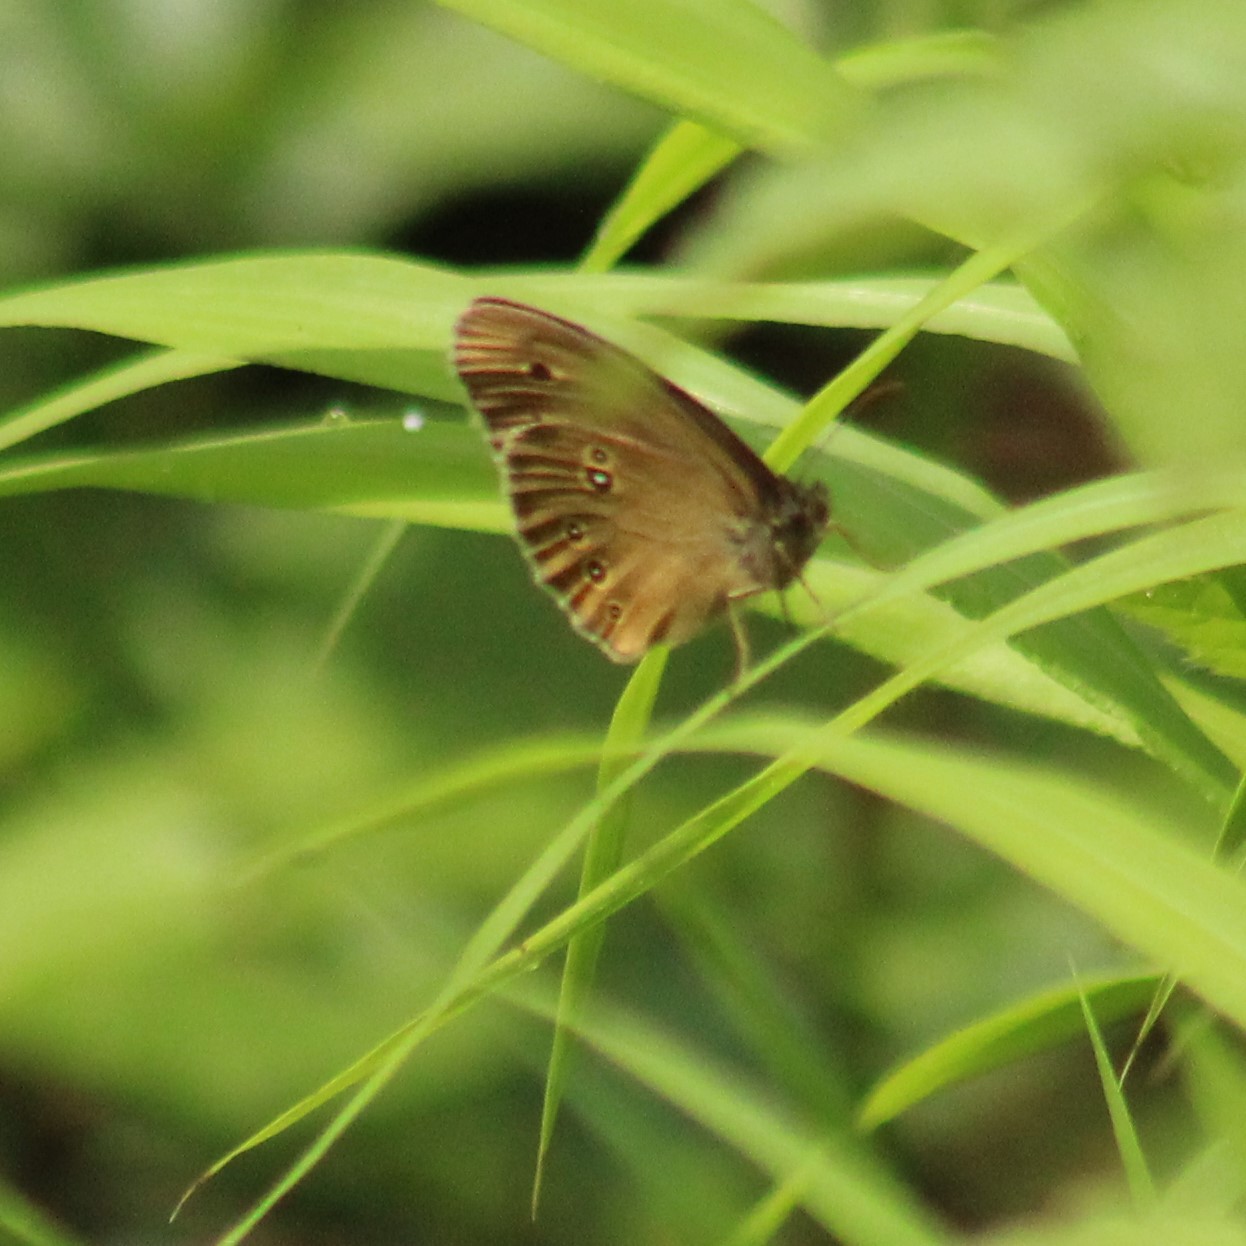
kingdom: Animalia
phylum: Arthropoda
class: Insecta
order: Lepidoptera
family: Nymphalidae
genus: Aphantopus
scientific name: Aphantopus hyperantus
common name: Ringlet
